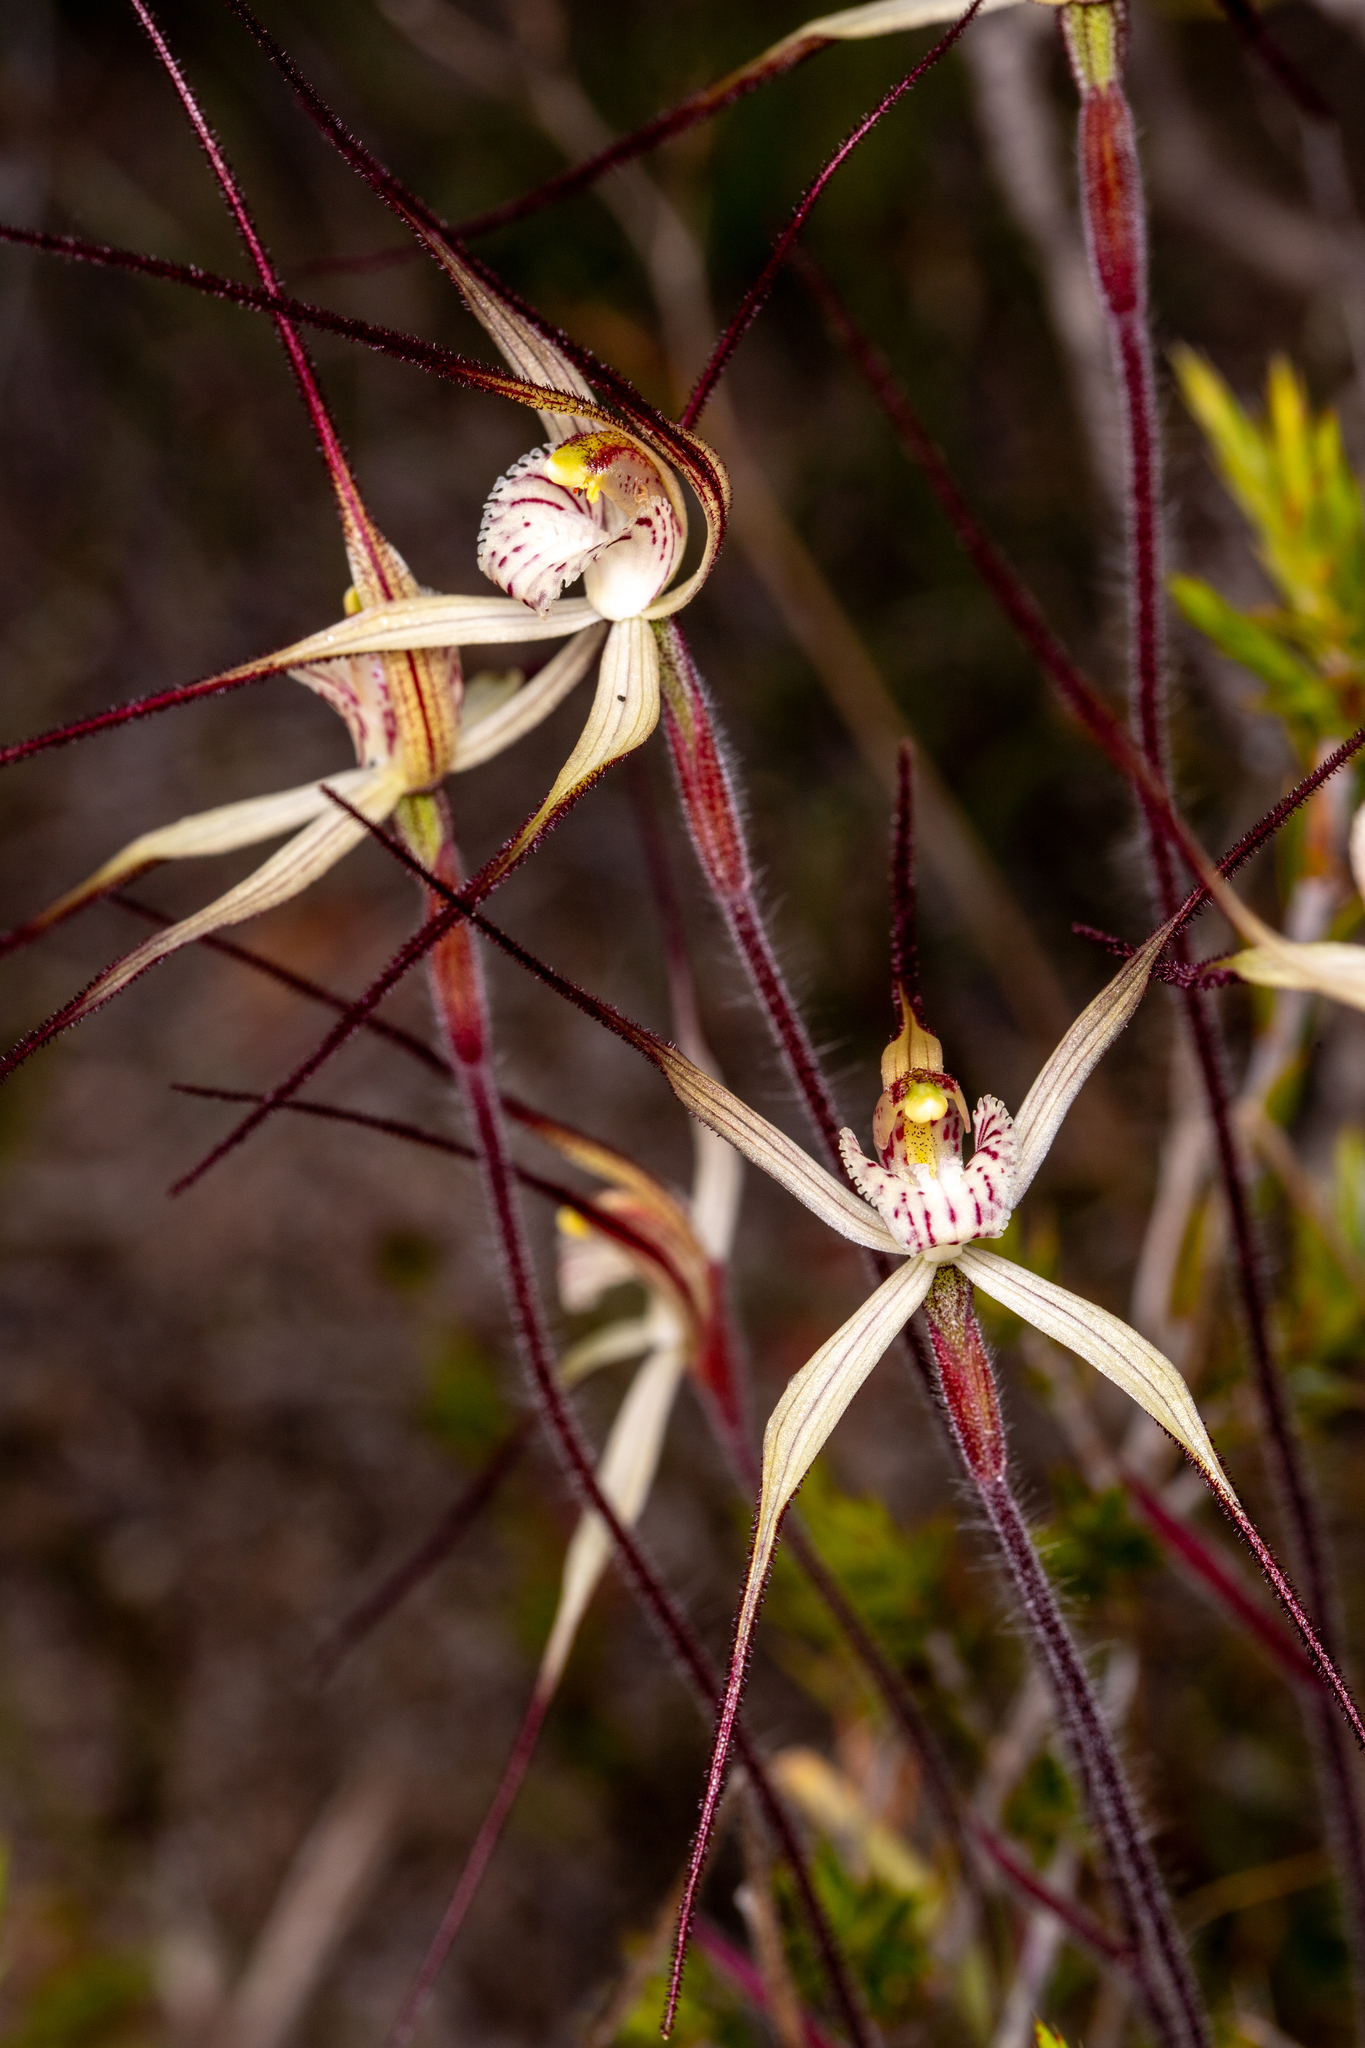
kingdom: Plantae
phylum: Tracheophyta
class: Liliopsida
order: Asparagales
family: Orchidaceae
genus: Caladenia
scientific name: Caladenia polychroma
